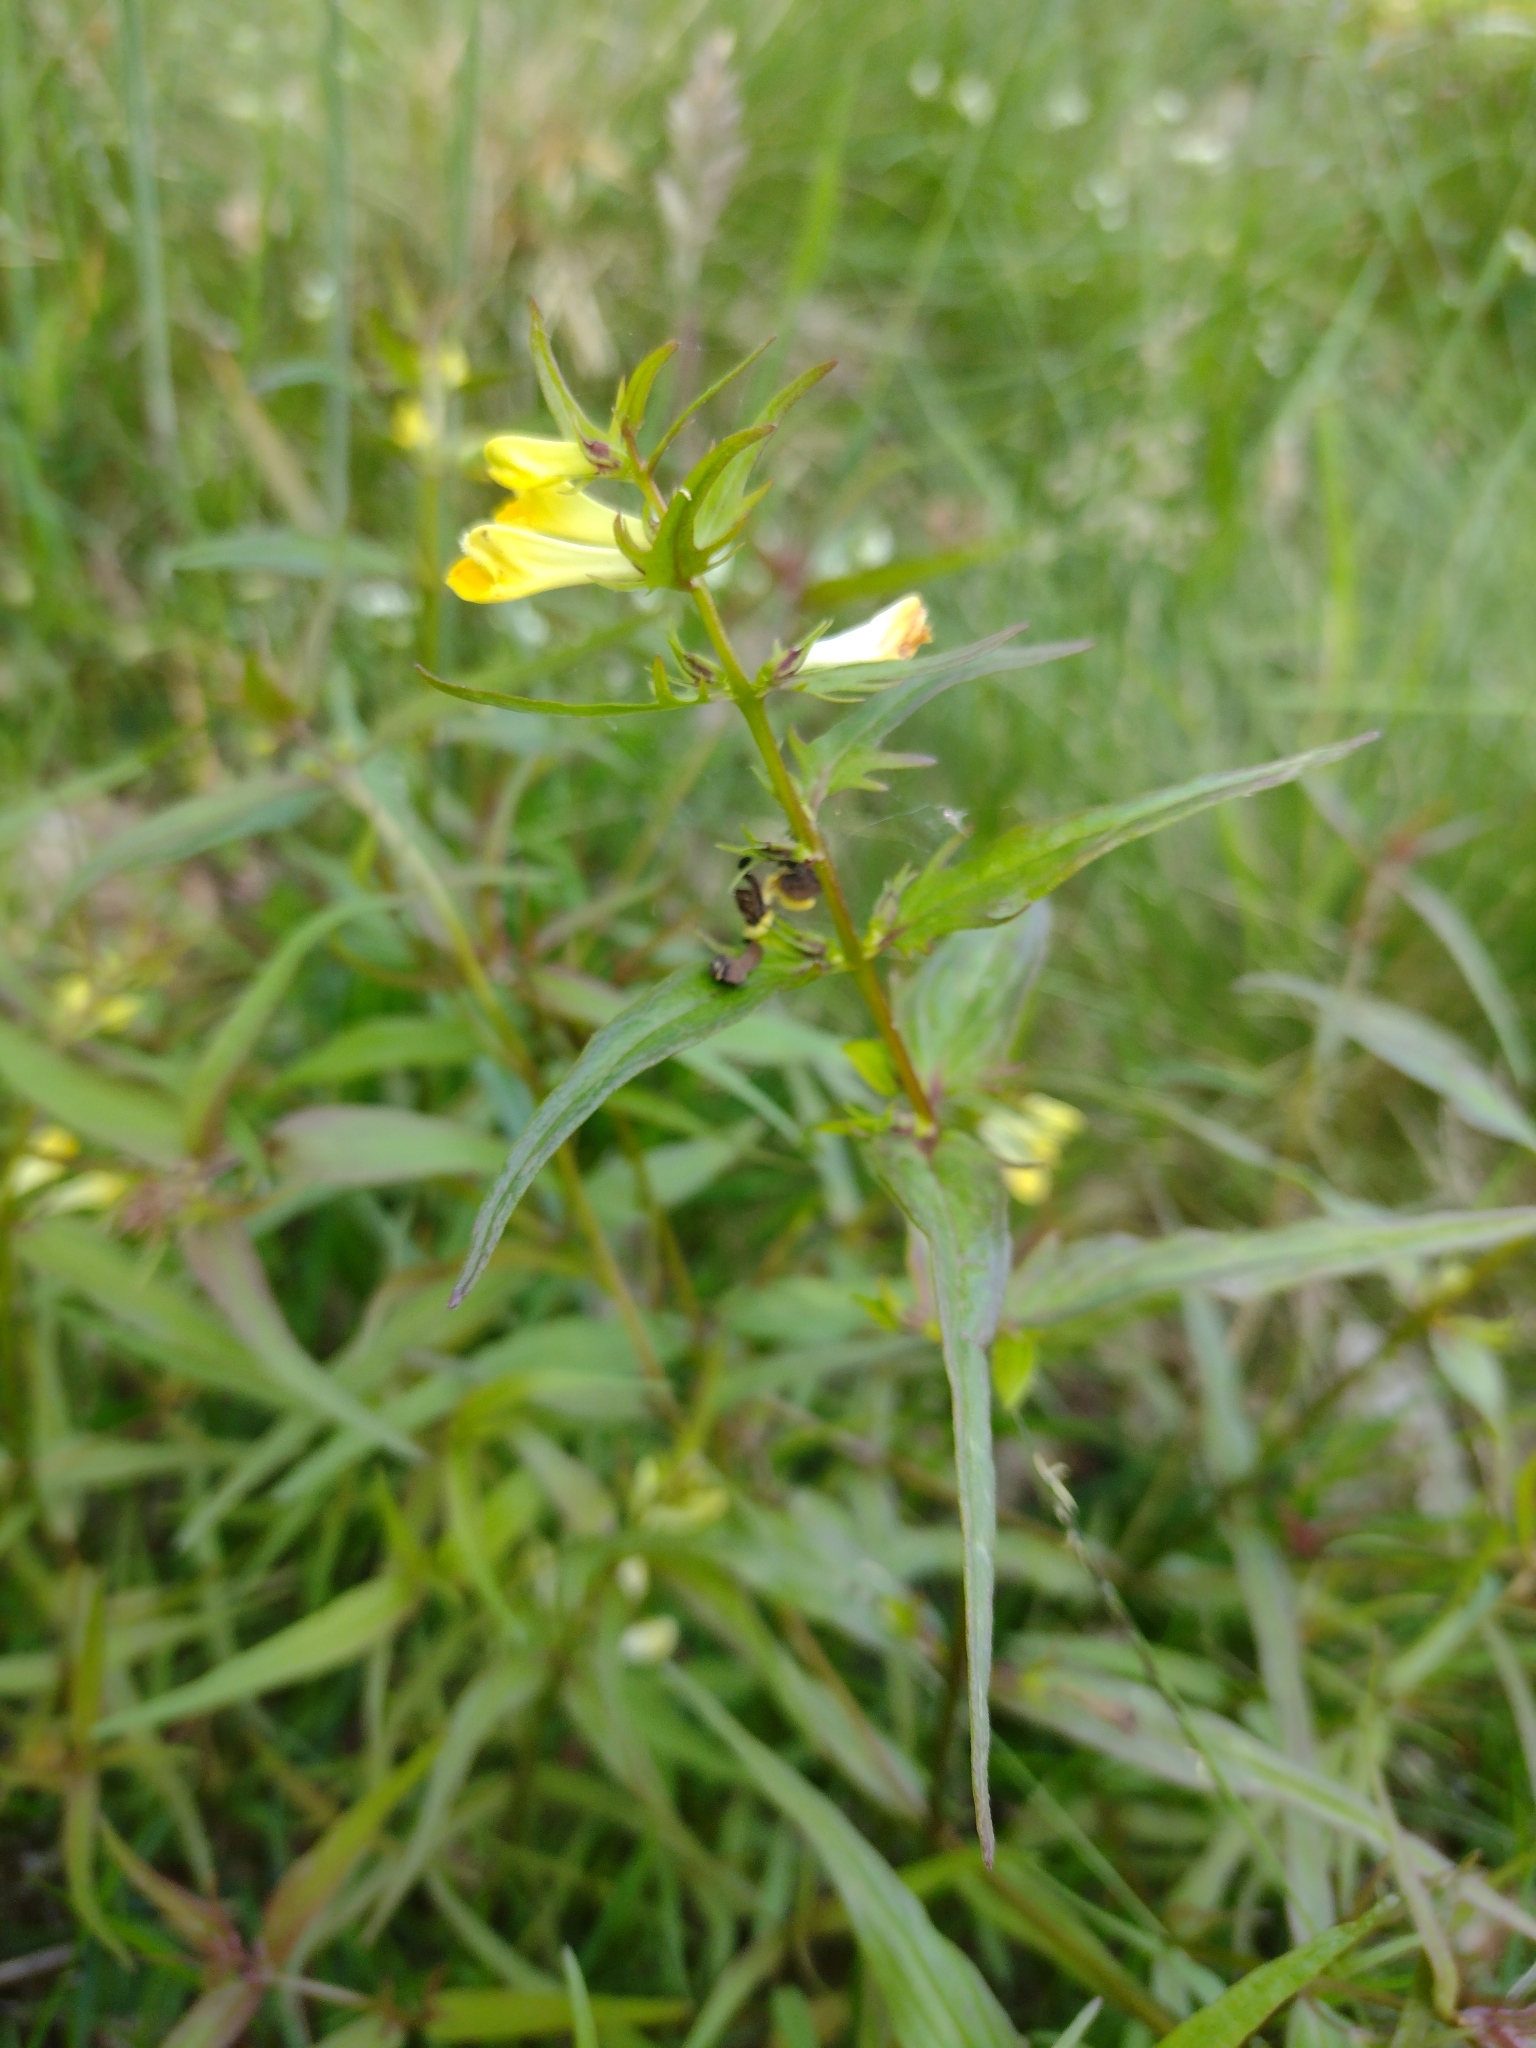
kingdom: Plantae
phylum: Tracheophyta
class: Magnoliopsida
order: Lamiales
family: Orobanchaceae
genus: Melampyrum
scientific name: Melampyrum pratense
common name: Common cow-wheat
